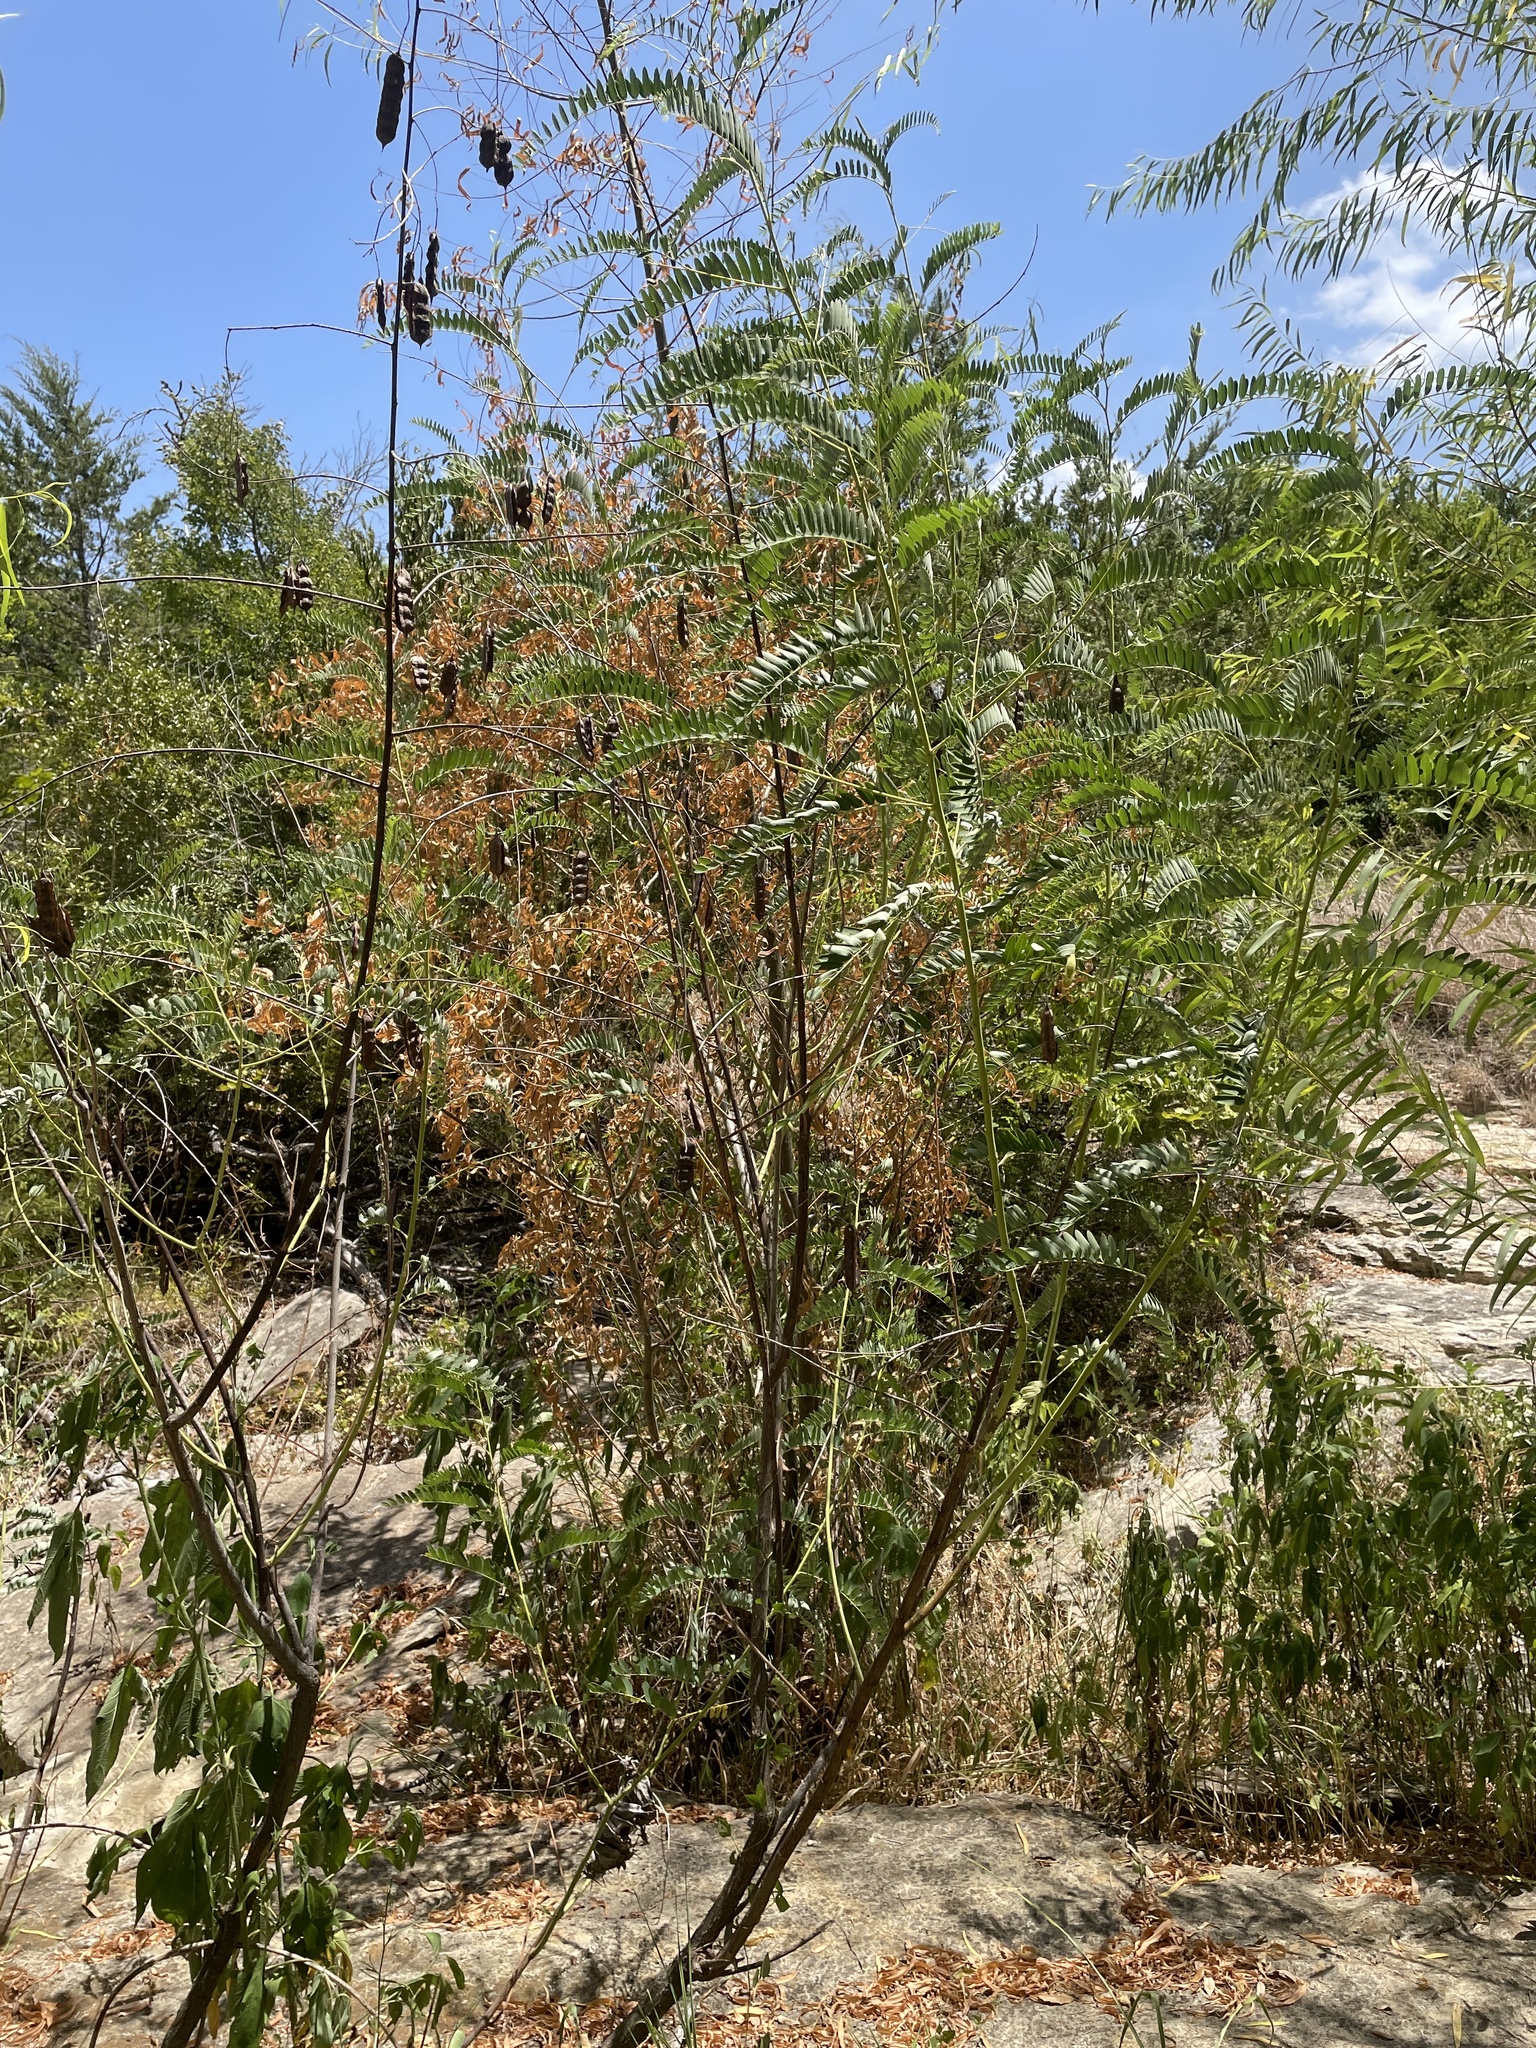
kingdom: Plantae
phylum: Tracheophyta
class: Magnoliopsida
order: Fabales
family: Fabaceae
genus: Sesbania
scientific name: Sesbania drummondii
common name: Poison-bean
